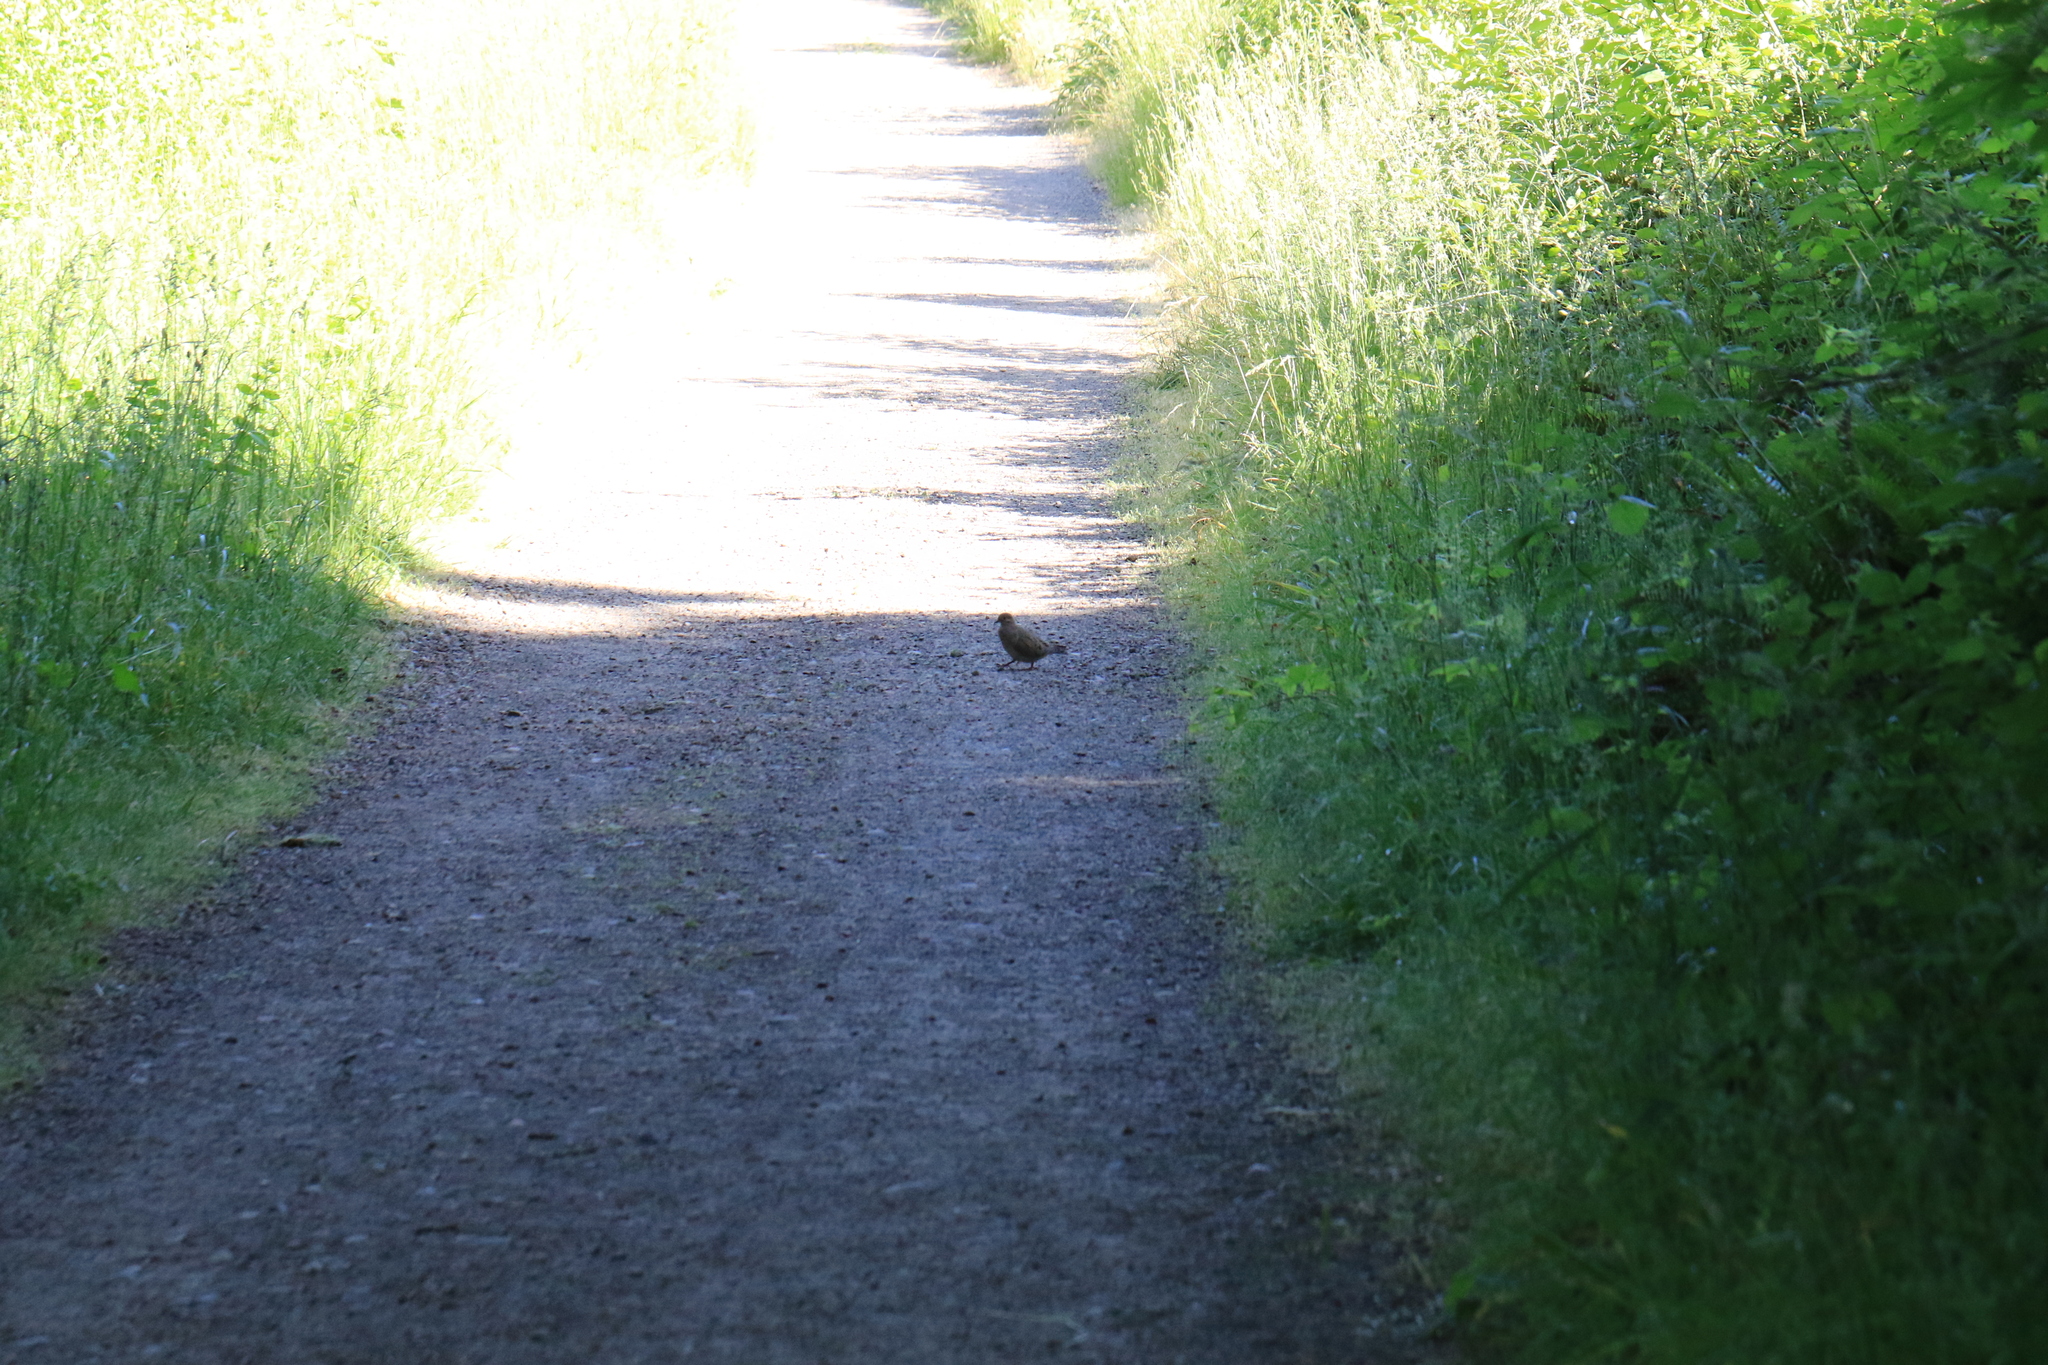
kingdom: Animalia
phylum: Chordata
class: Aves
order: Columbiformes
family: Columbidae
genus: Zenaida
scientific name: Zenaida macroura
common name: Mourning dove
